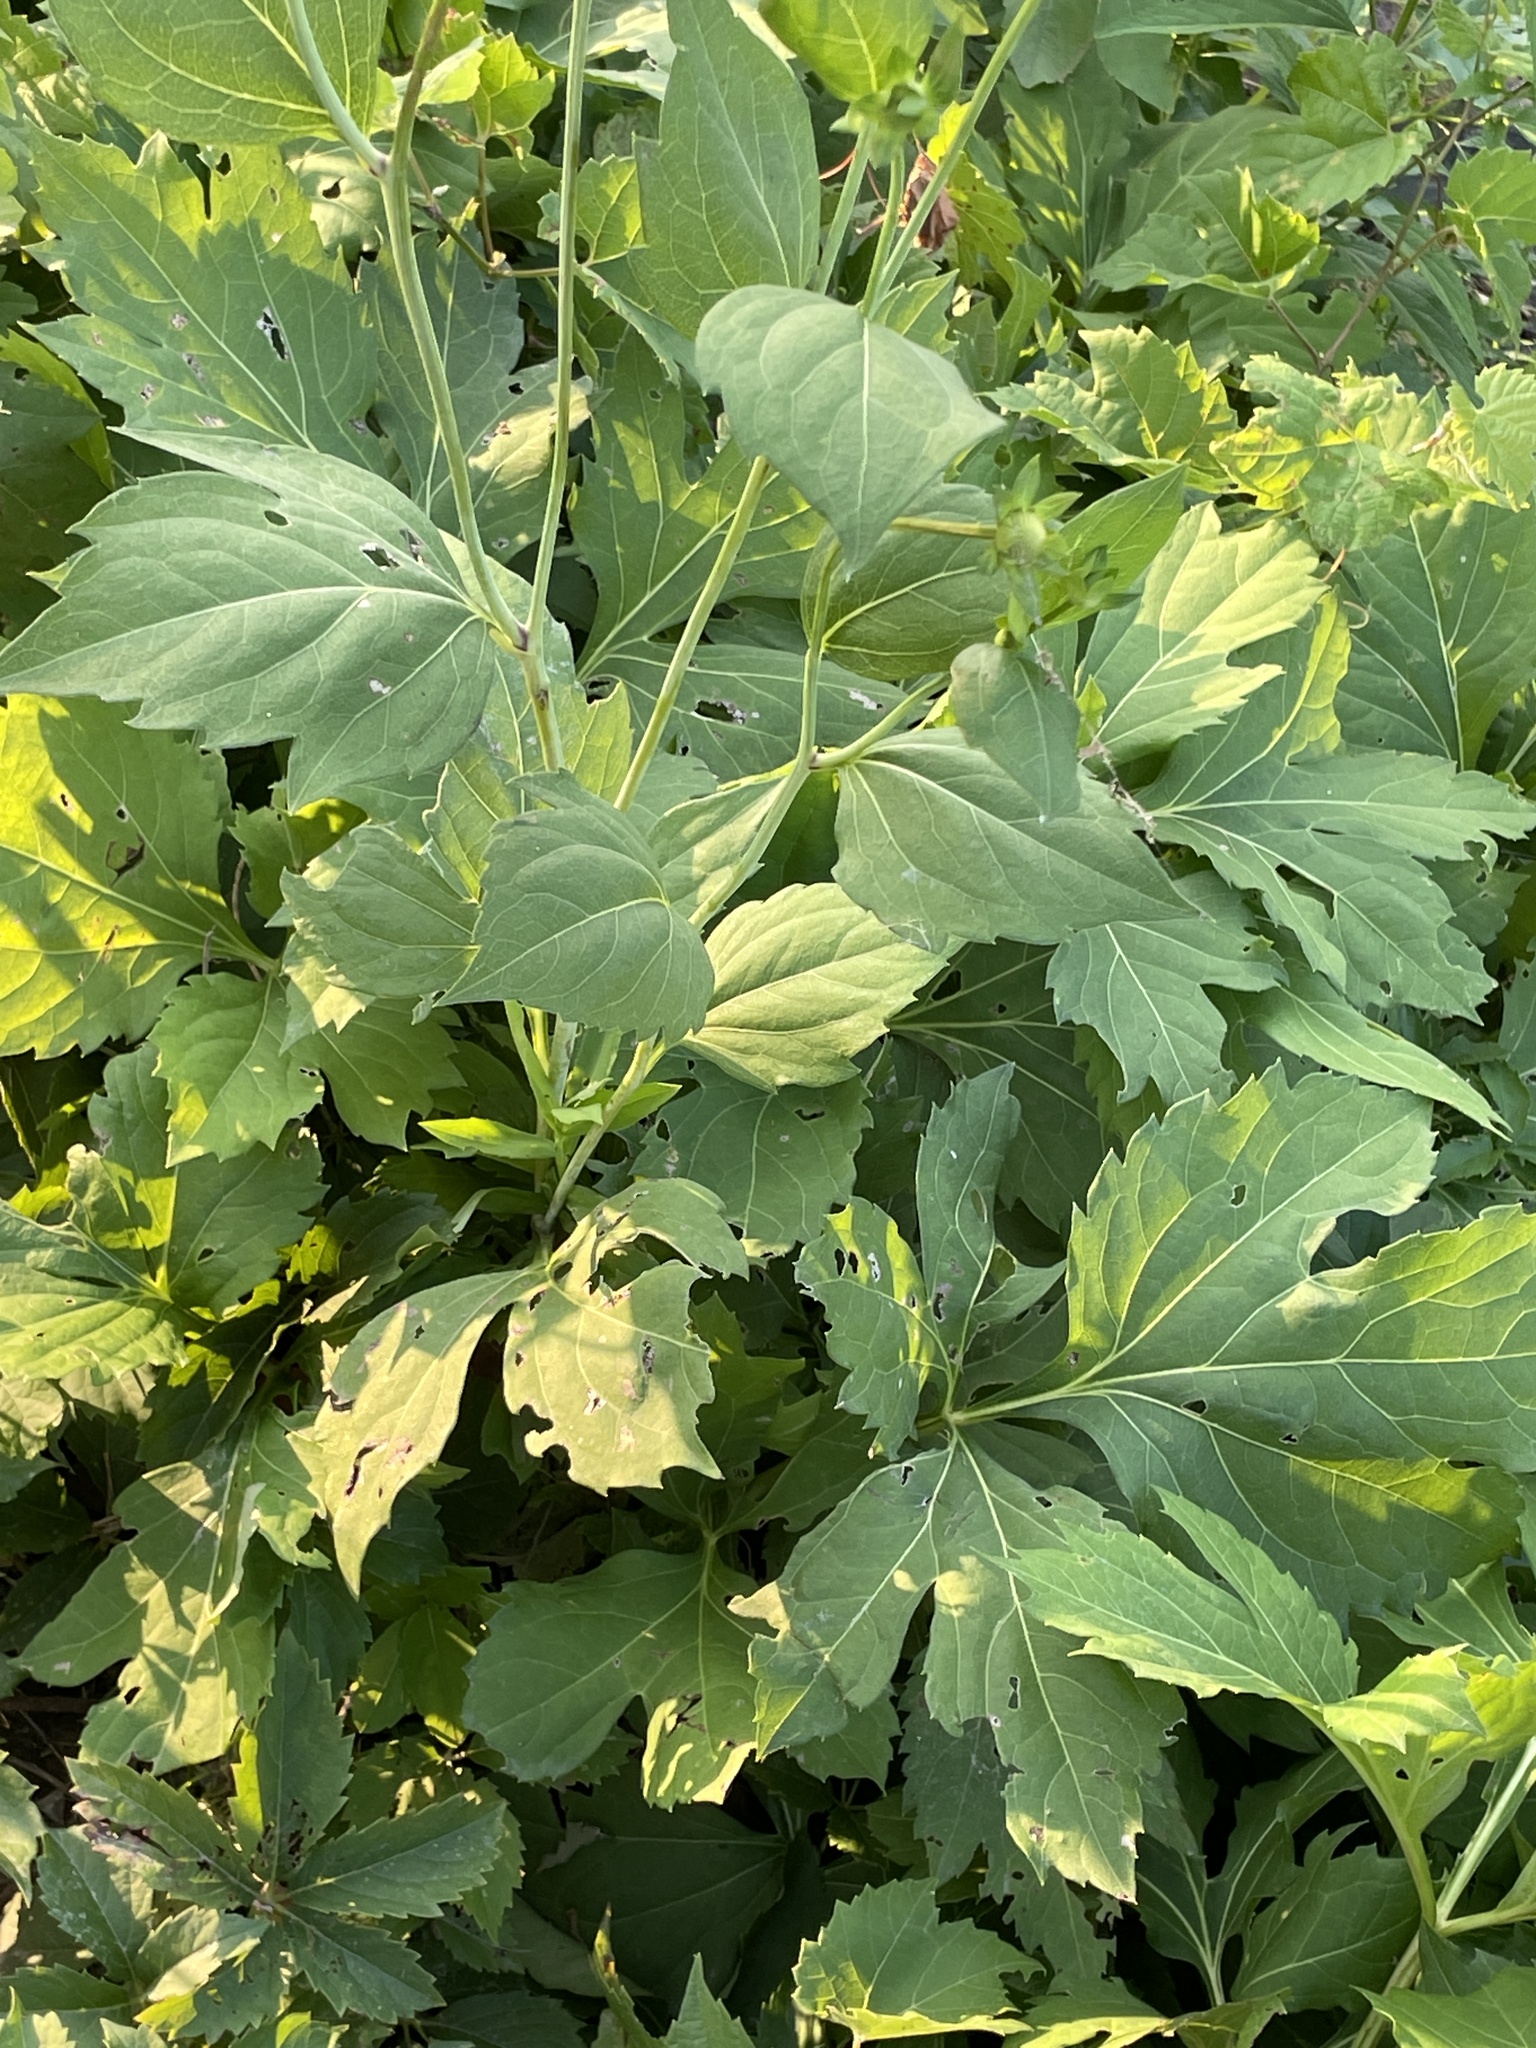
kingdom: Plantae
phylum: Tracheophyta
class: Magnoliopsida
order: Asterales
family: Asteraceae
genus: Rudbeckia
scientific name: Rudbeckia laciniata
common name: Coneflower
